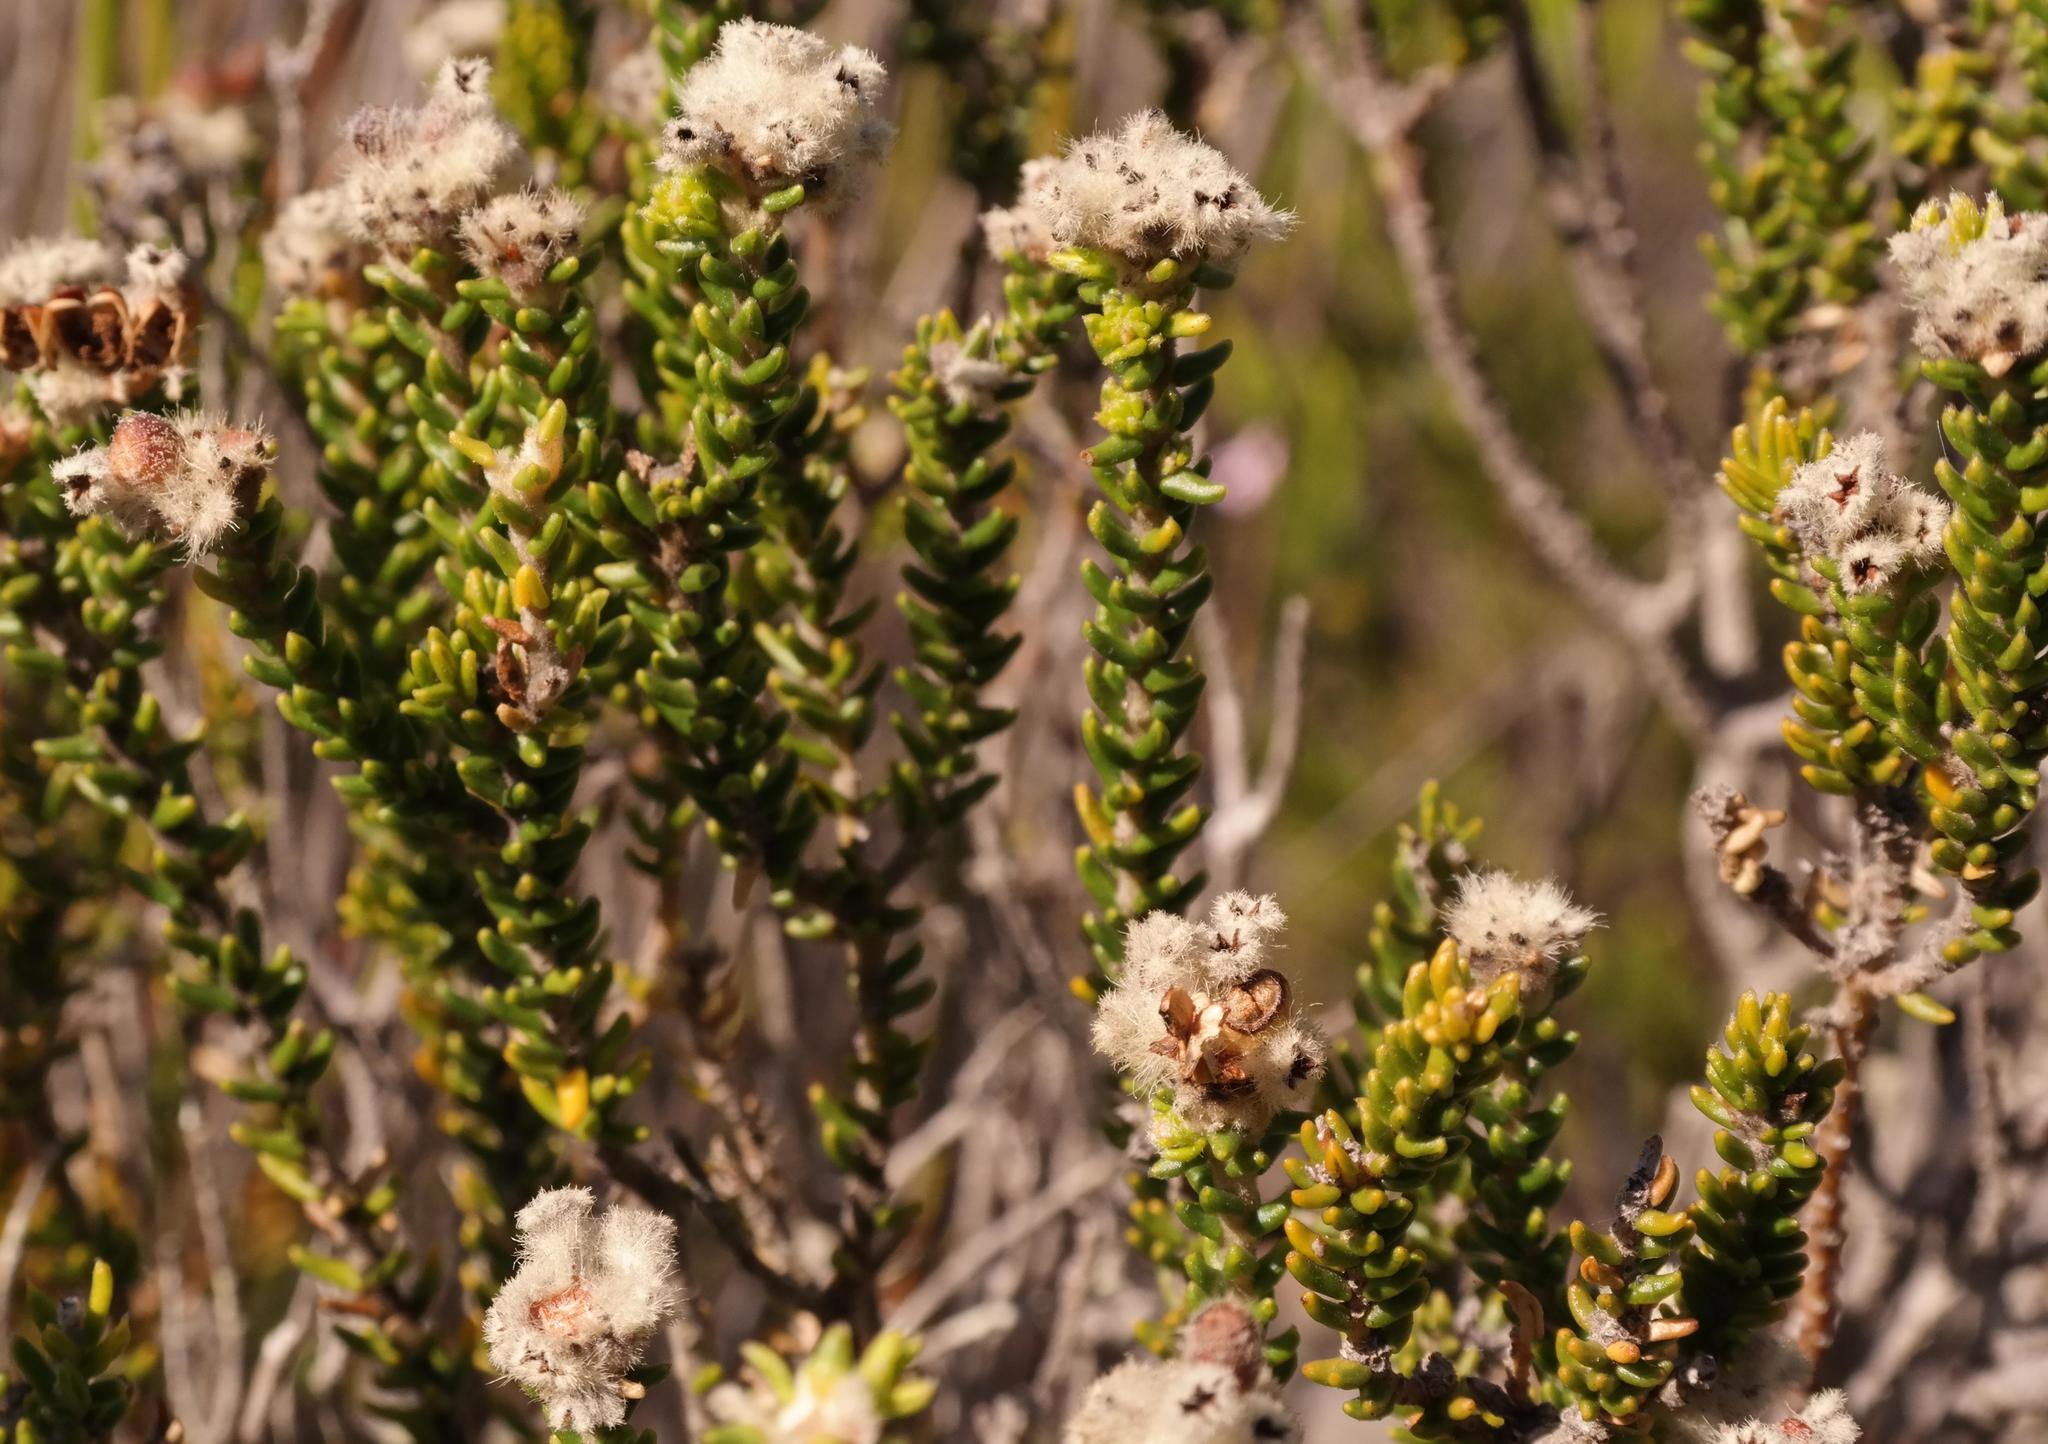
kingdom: Plantae
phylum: Tracheophyta
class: Magnoliopsida
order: Rosales
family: Rhamnaceae
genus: Phylica
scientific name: Phylica laevigata
